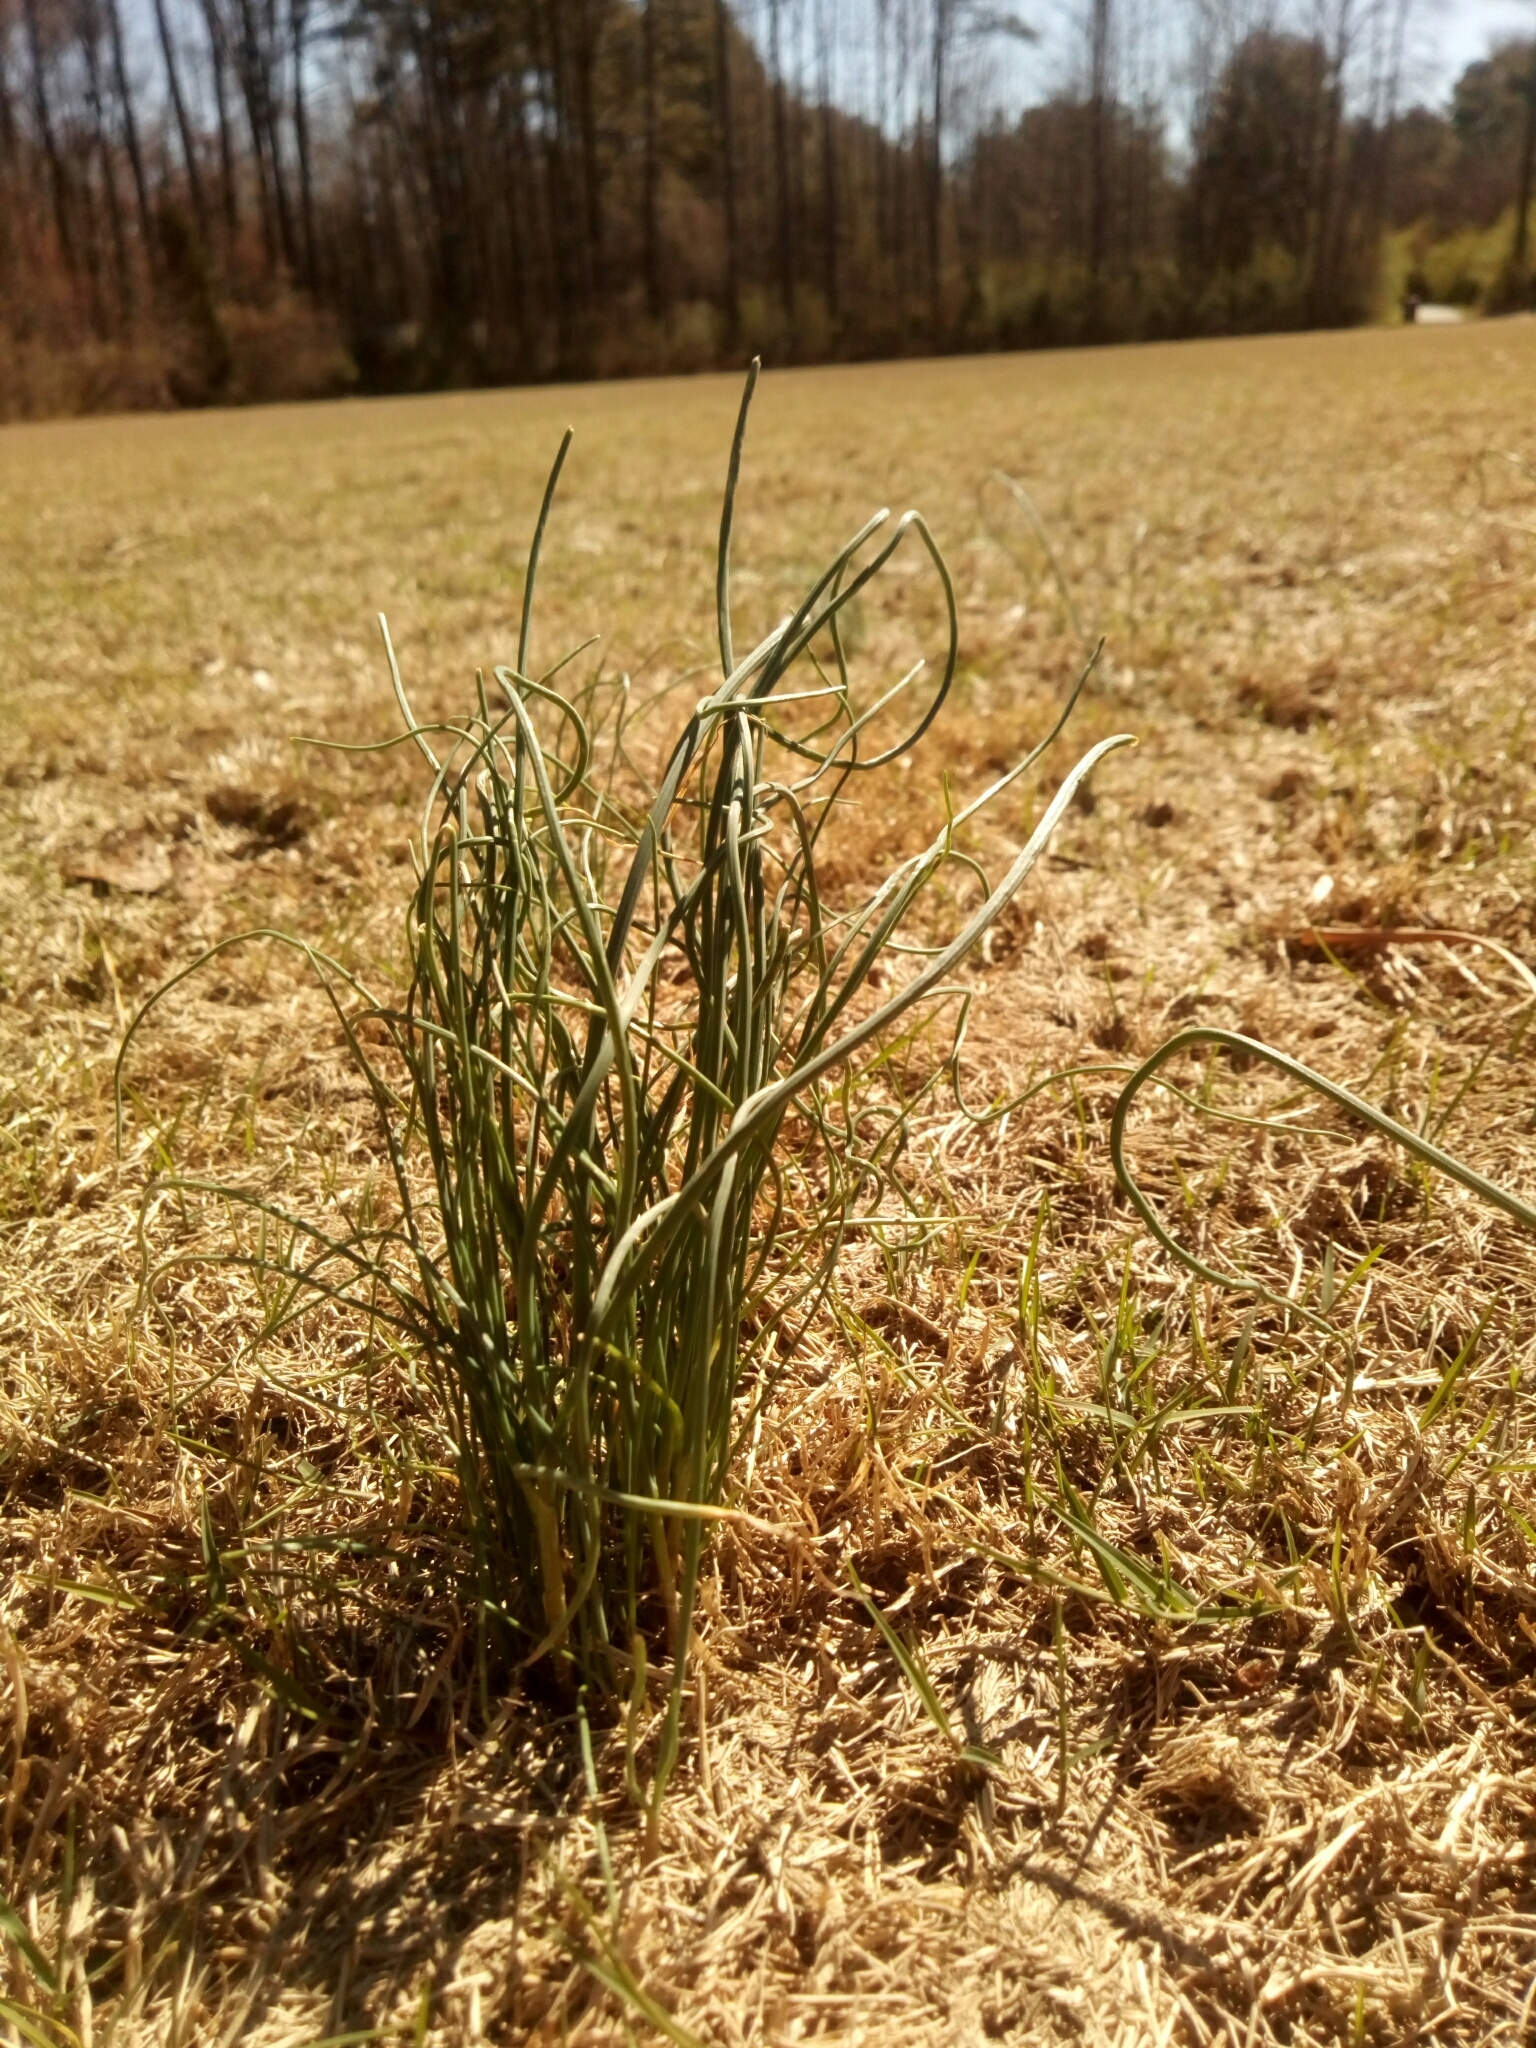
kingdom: Plantae
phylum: Tracheophyta
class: Liliopsida
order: Asparagales
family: Amaryllidaceae
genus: Allium
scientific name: Allium vineale
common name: Crow garlic
